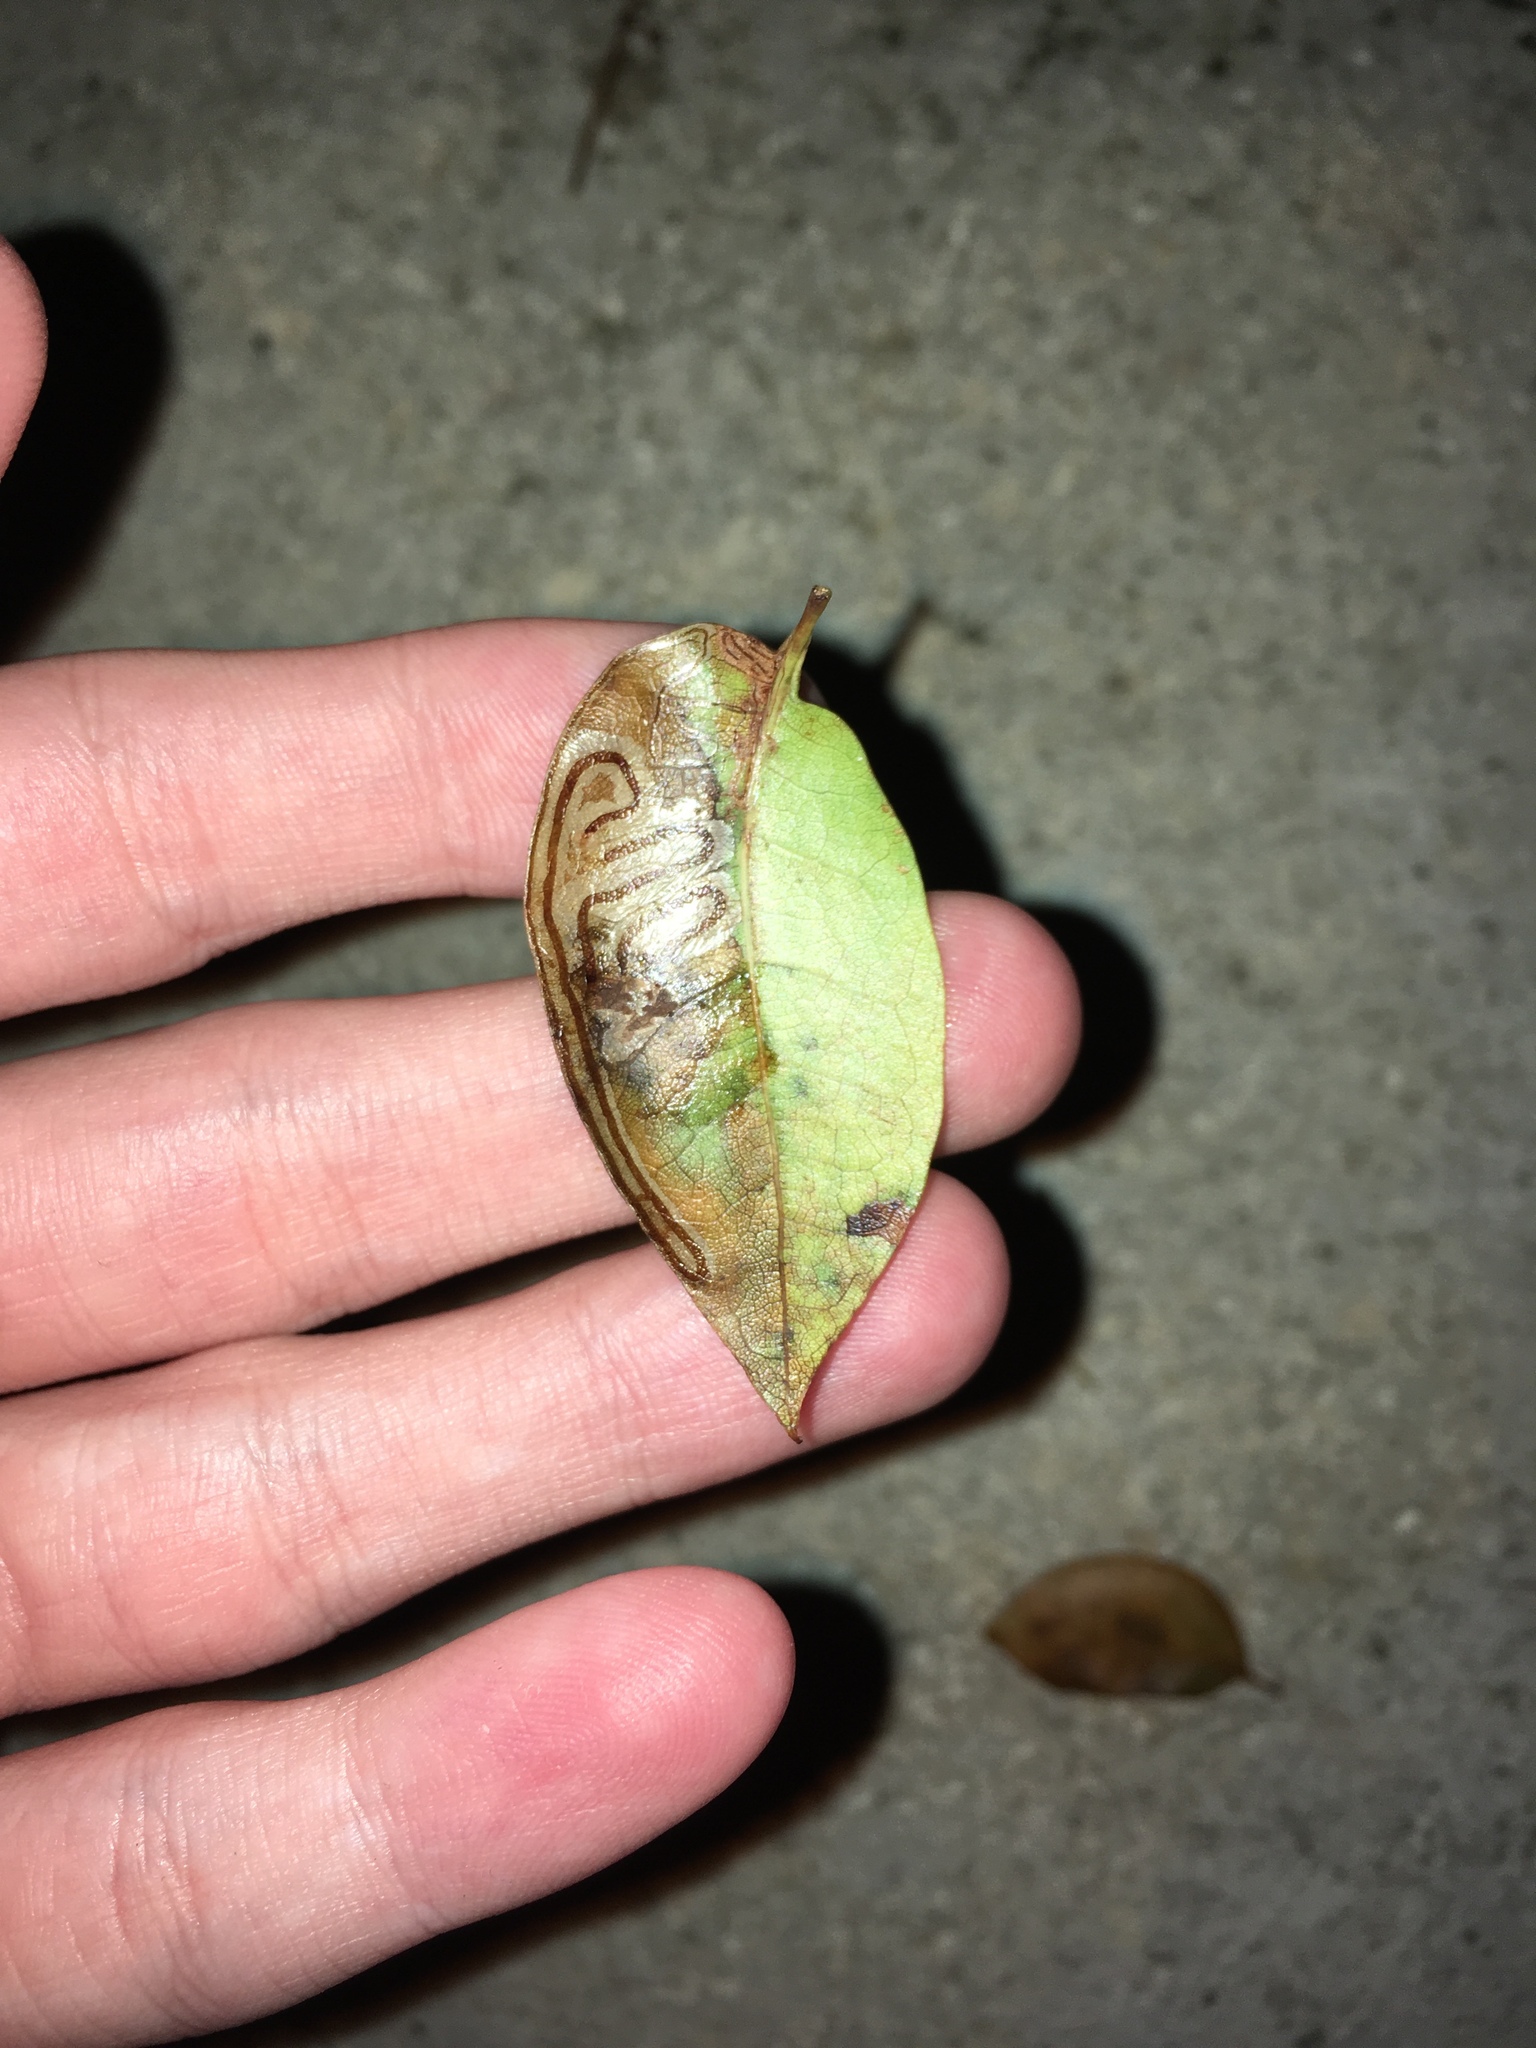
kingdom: Animalia
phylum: Arthropoda
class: Insecta
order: Lepidoptera
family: Gracillariidae
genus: Phyllocnistis
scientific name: Phyllocnistis meliacella
